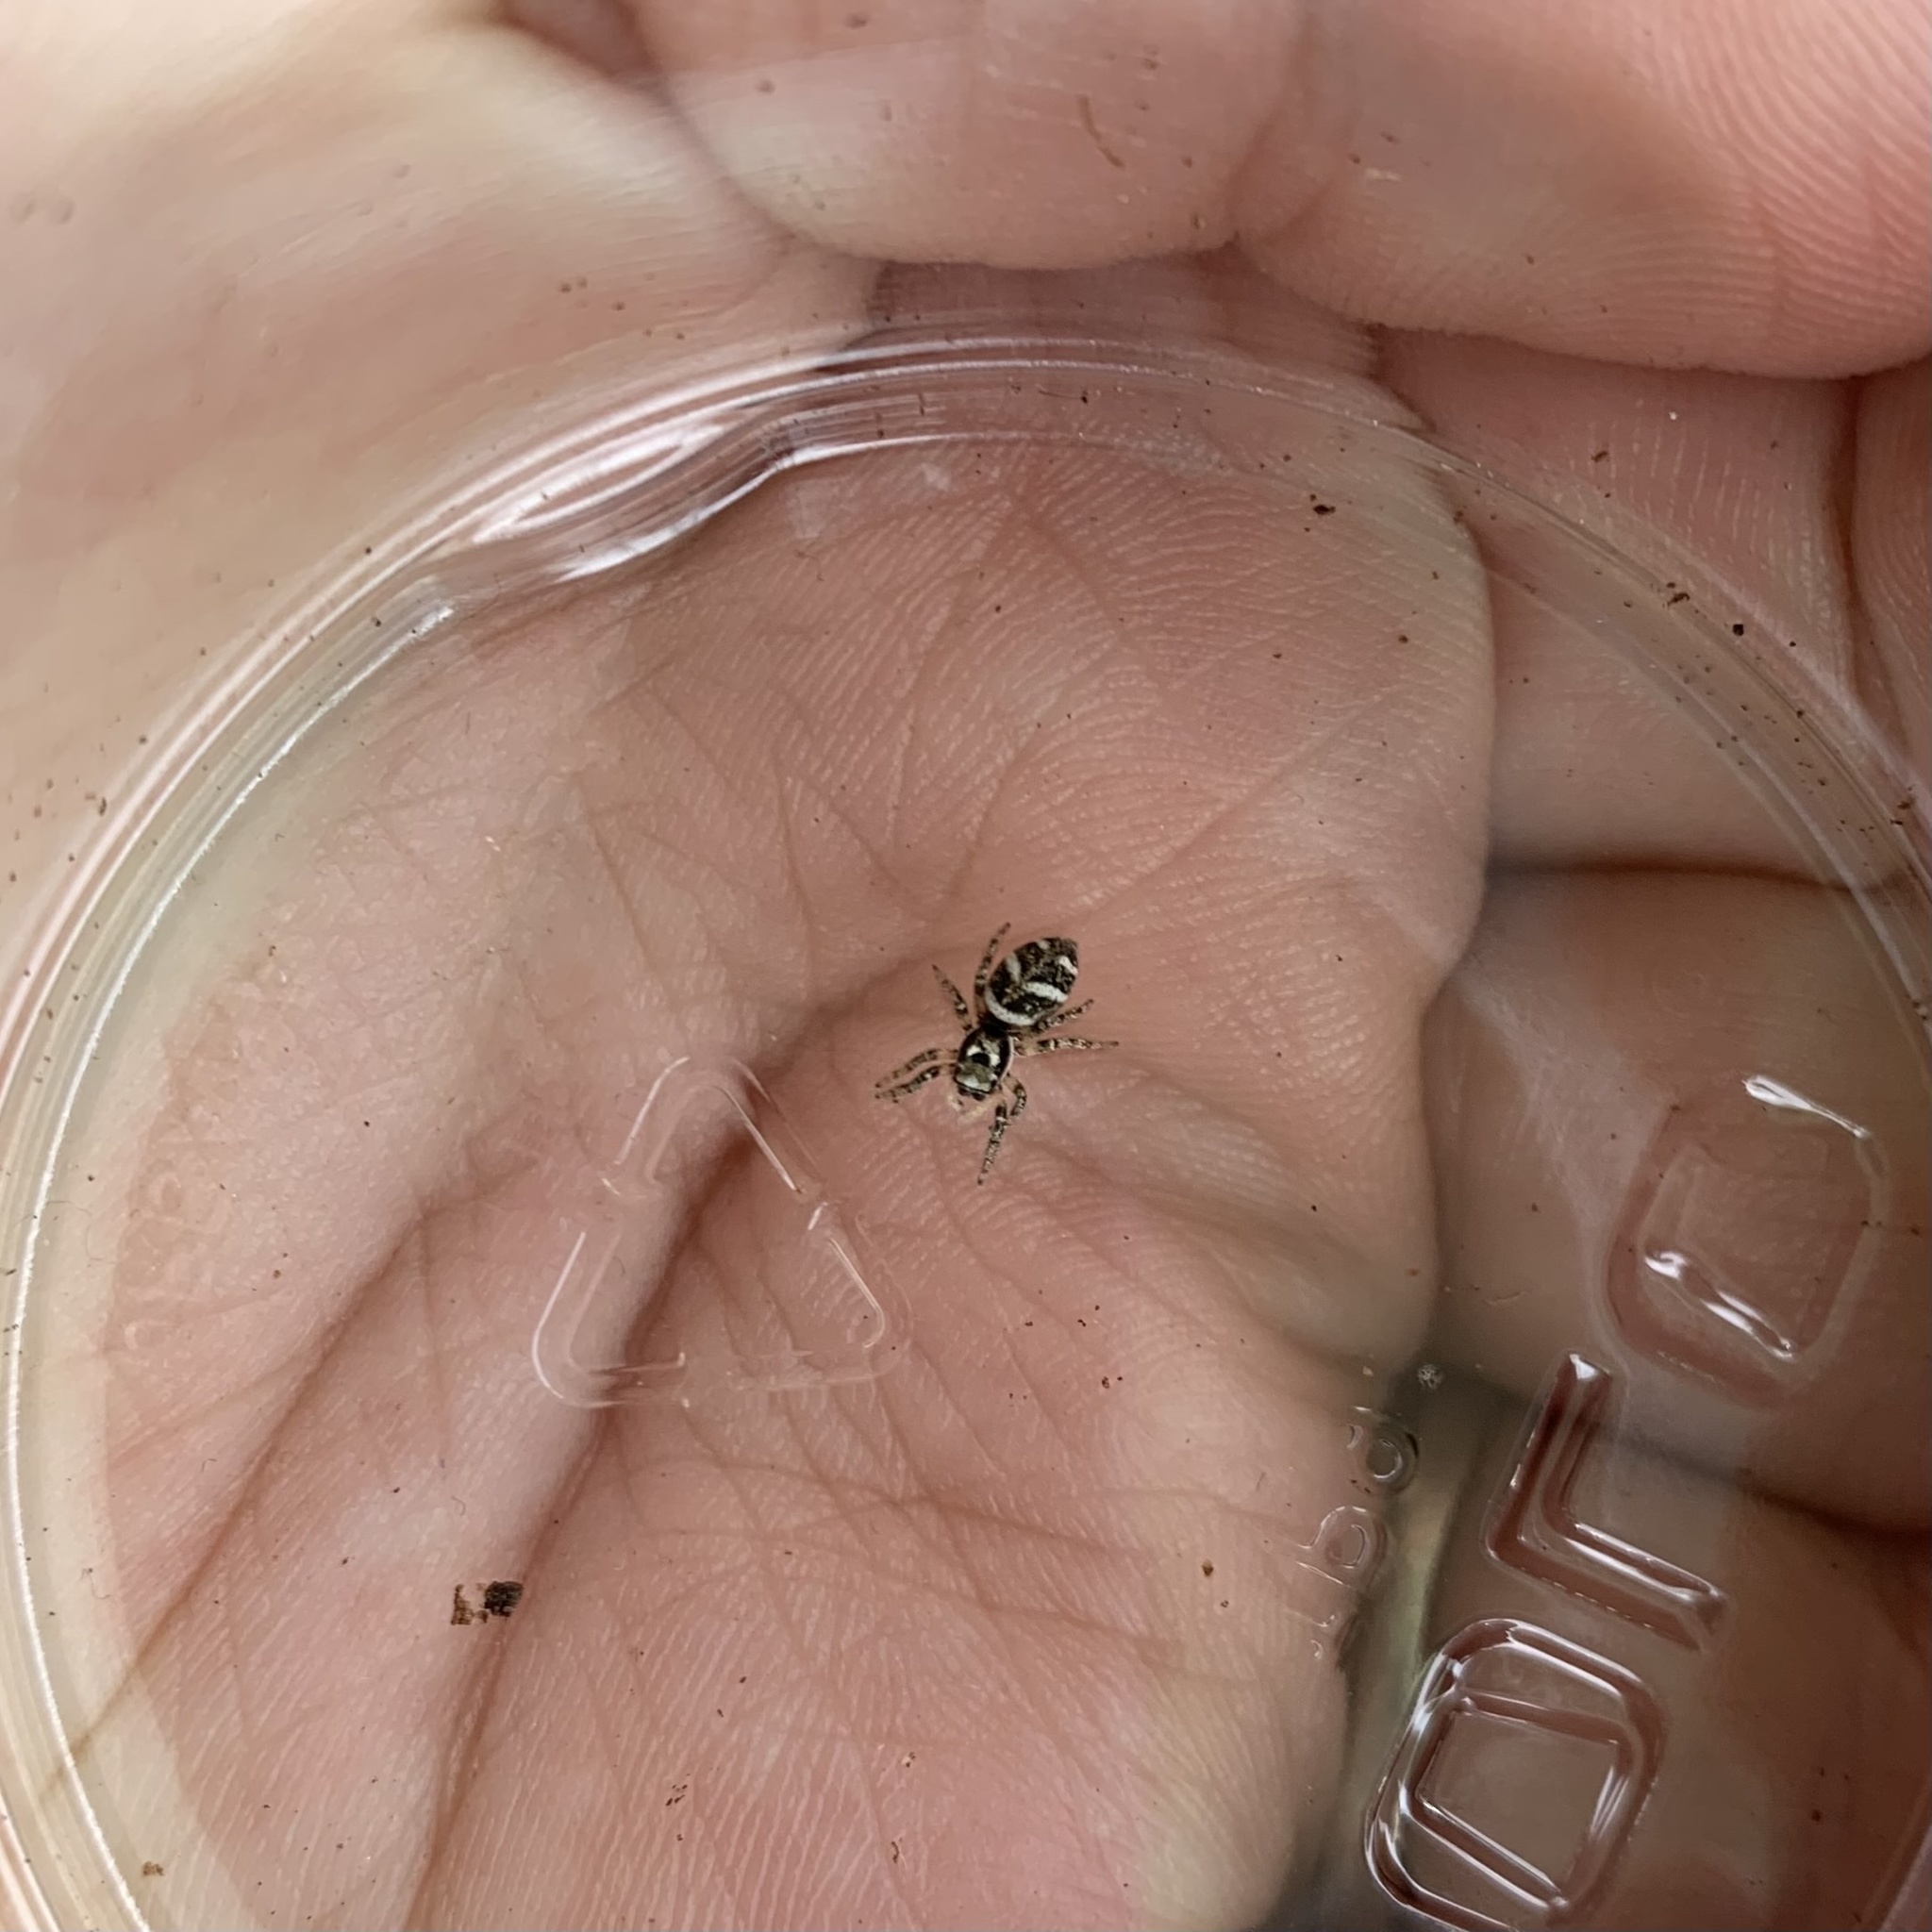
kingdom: Animalia
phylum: Arthropoda
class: Arachnida
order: Araneae
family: Salticidae
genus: Salticus
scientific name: Salticus scenicus
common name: Zebra jumper
